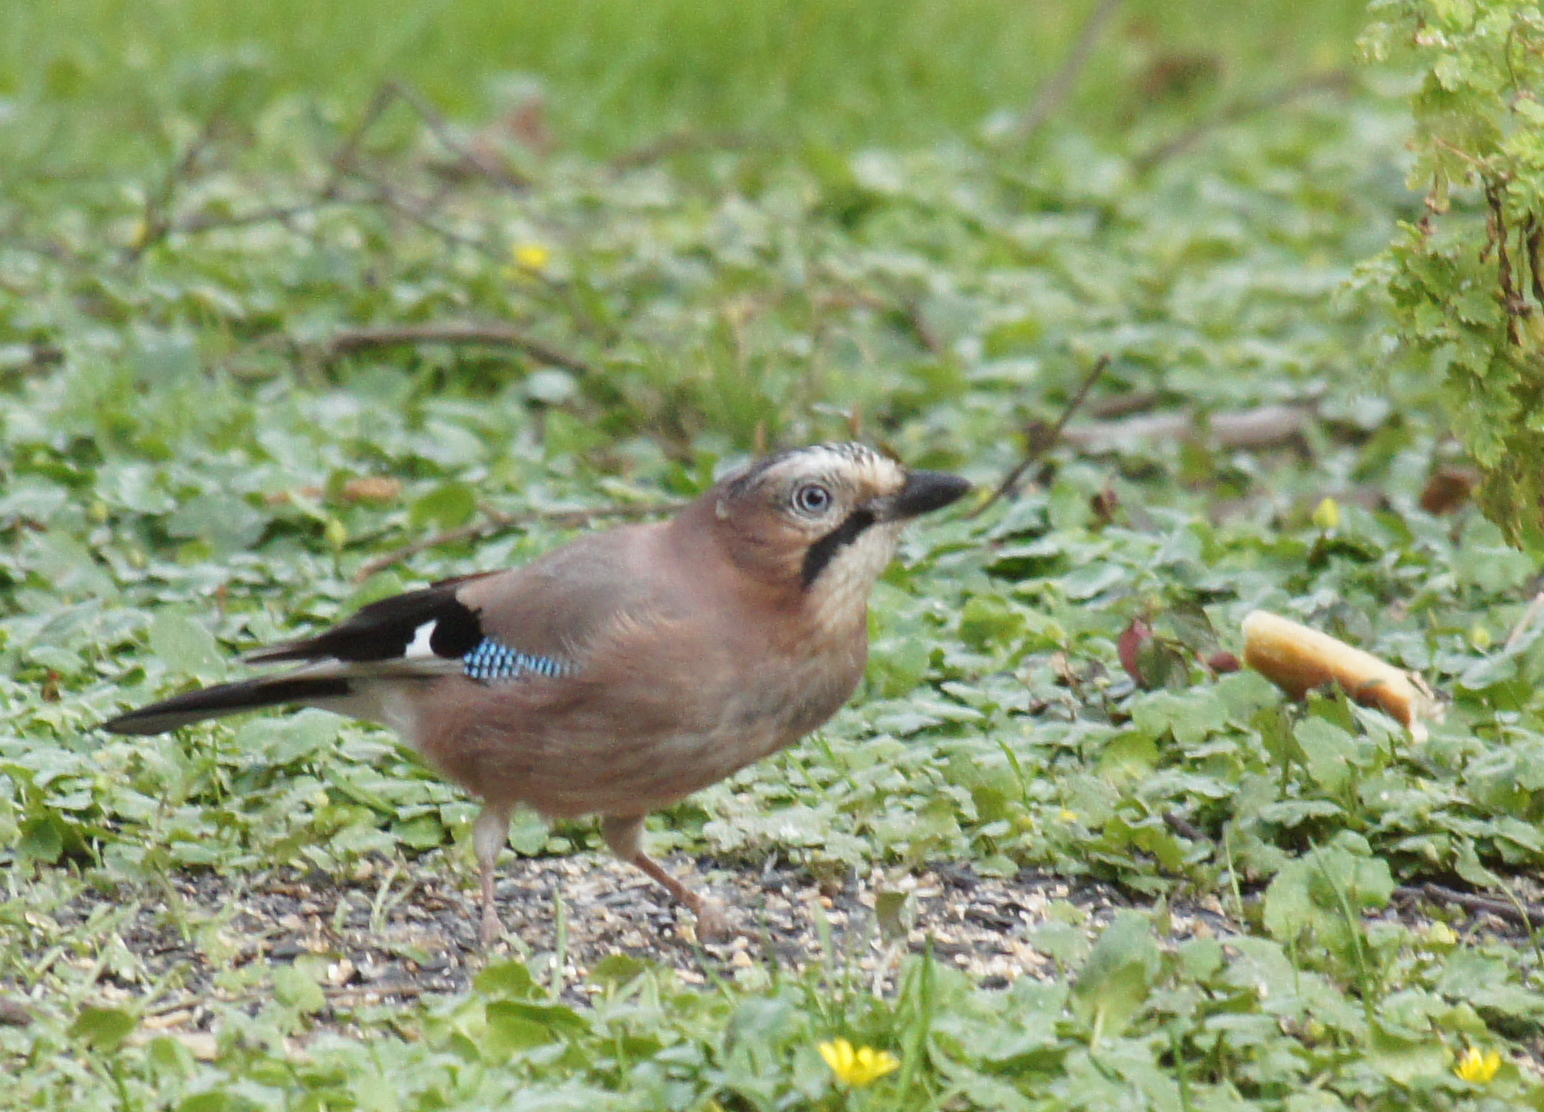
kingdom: Animalia
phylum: Chordata
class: Aves
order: Passeriformes
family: Corvidae
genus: Garrulus
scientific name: Garrulus glandarius
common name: Eurasian jay
